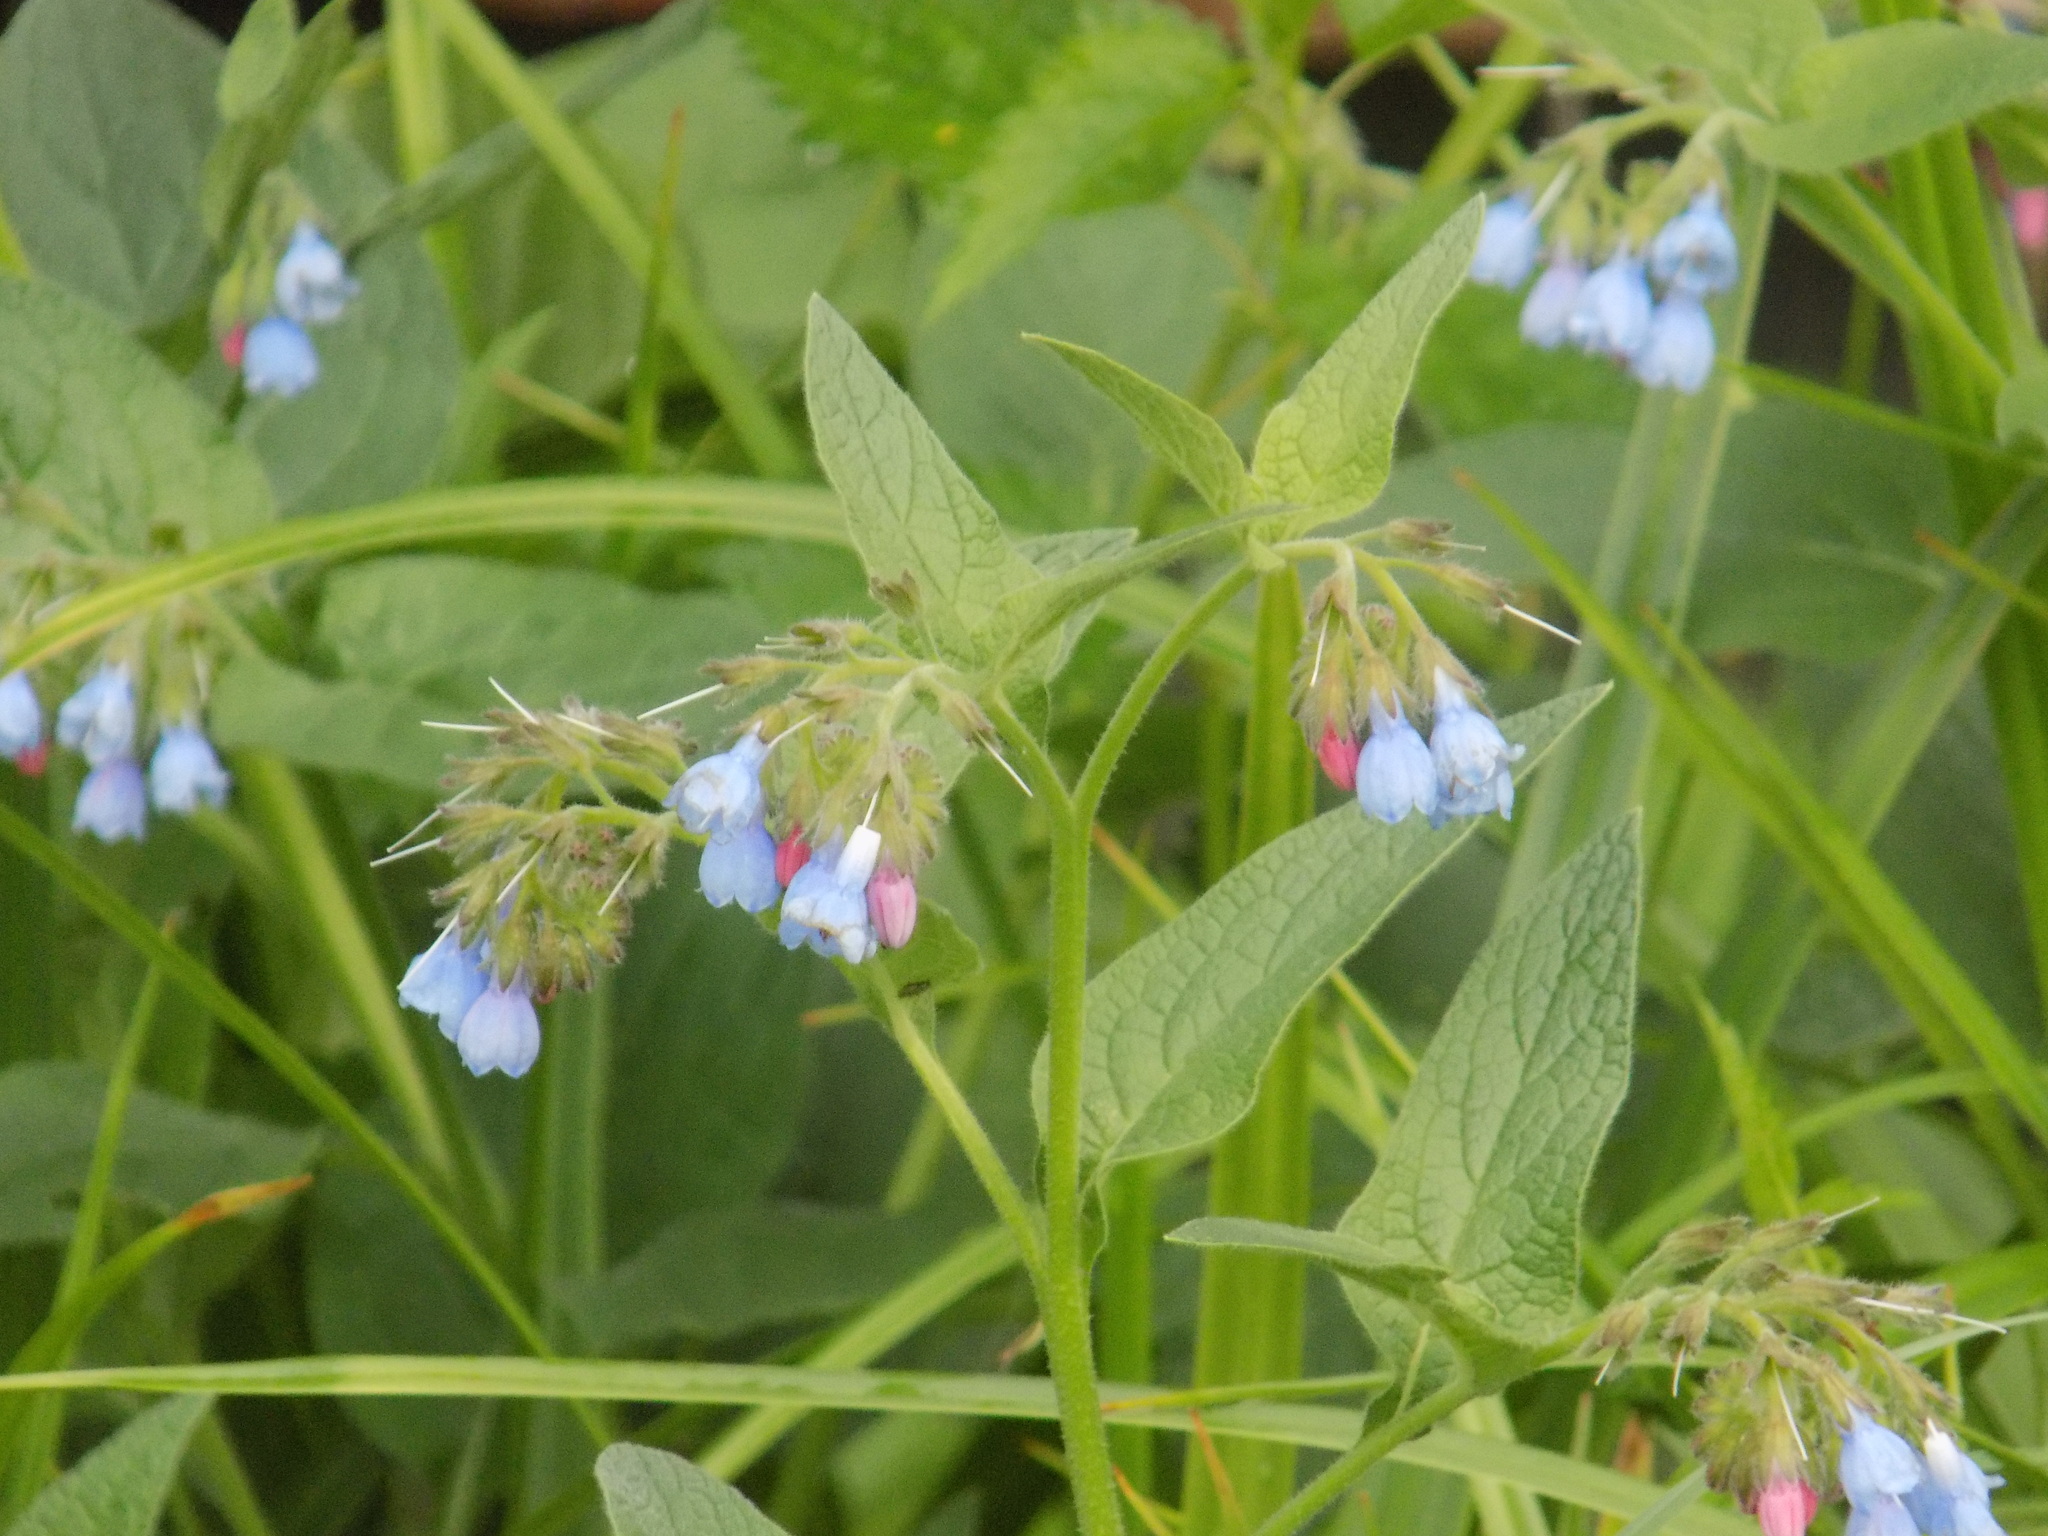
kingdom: Plantae
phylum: Tracheophyta
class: Magnoliopsida
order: Boraginales
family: Boraginaceae
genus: Symphytum
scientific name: Symphytum caucasicum
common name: Caucasian comfrey
